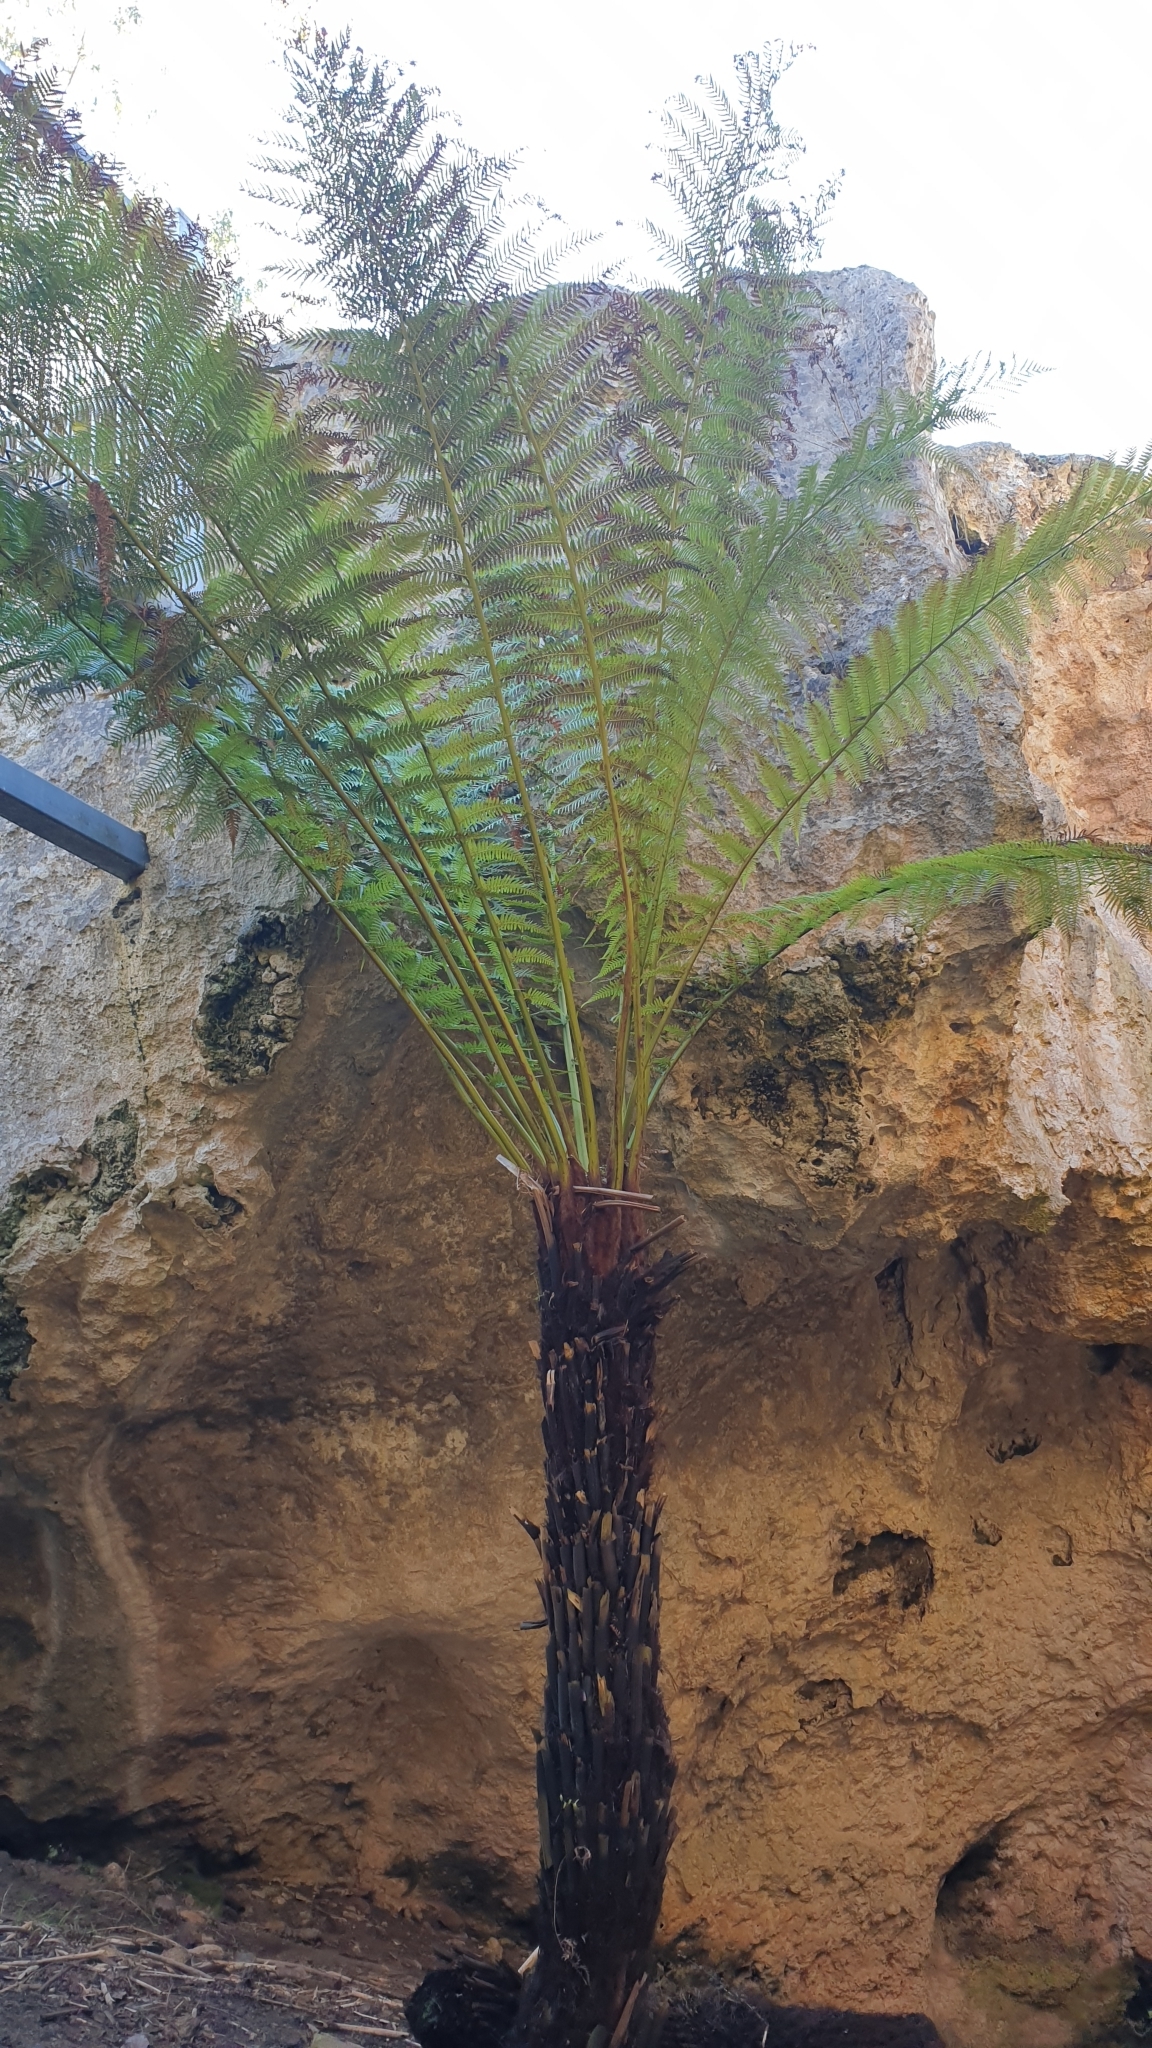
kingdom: Plantae
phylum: Tracheophyta
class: Polypodiopsida
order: Cyatheales
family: Dicksoniaceae
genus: Dicksonia
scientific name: Dicksonia antarctica
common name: Australian treefern
